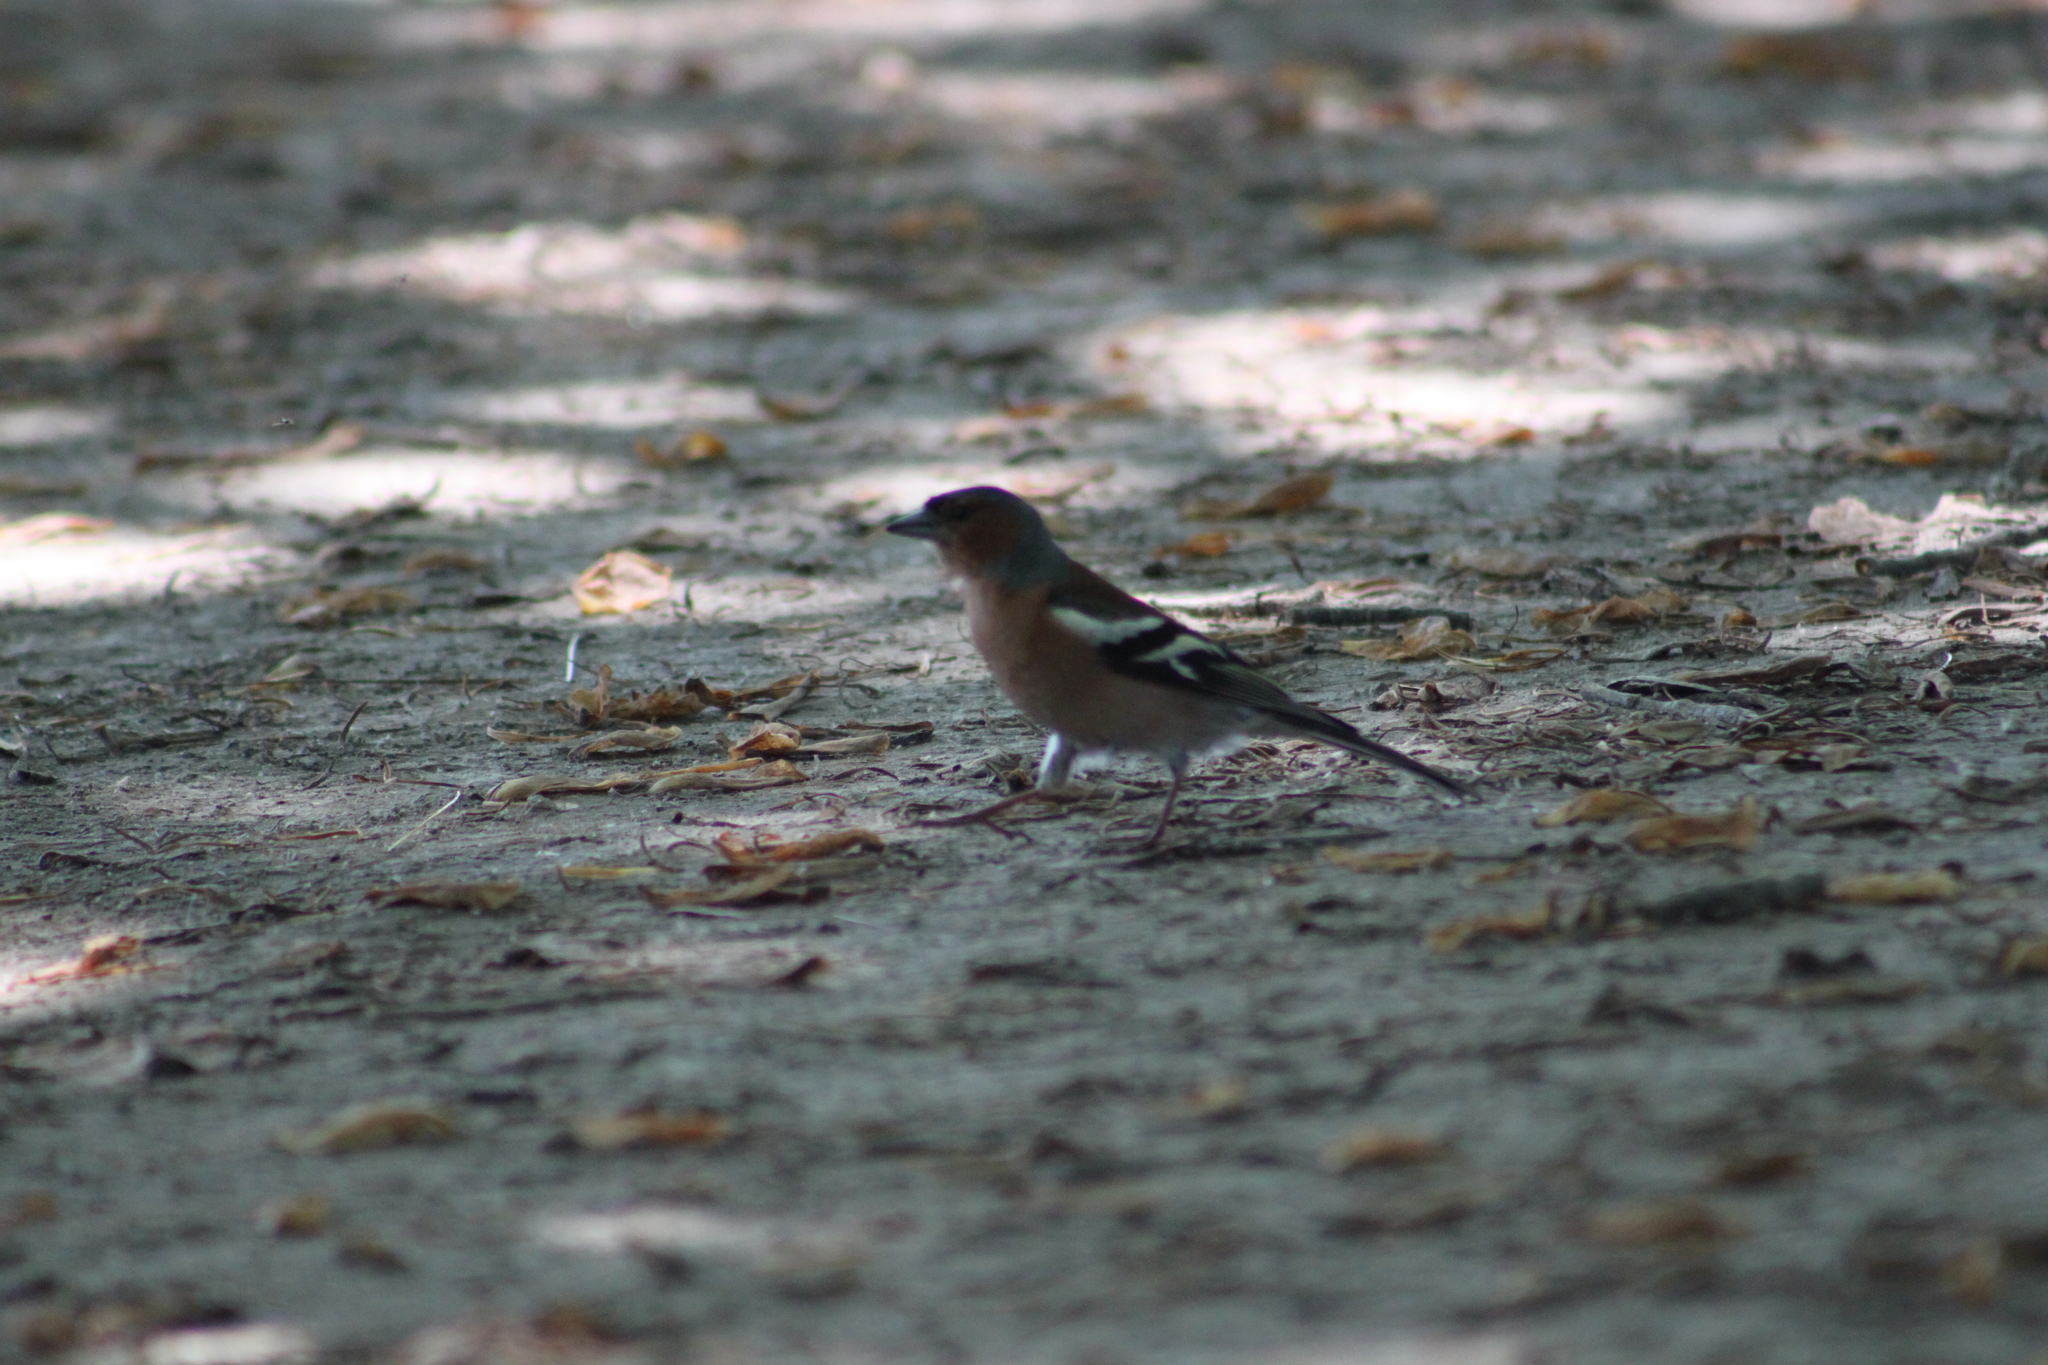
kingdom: Animalia
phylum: Chordata
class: Aves
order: Passeriformes
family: Fringillidae
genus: Fringilla
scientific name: Fringilla coelebs
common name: Common chaffinch
